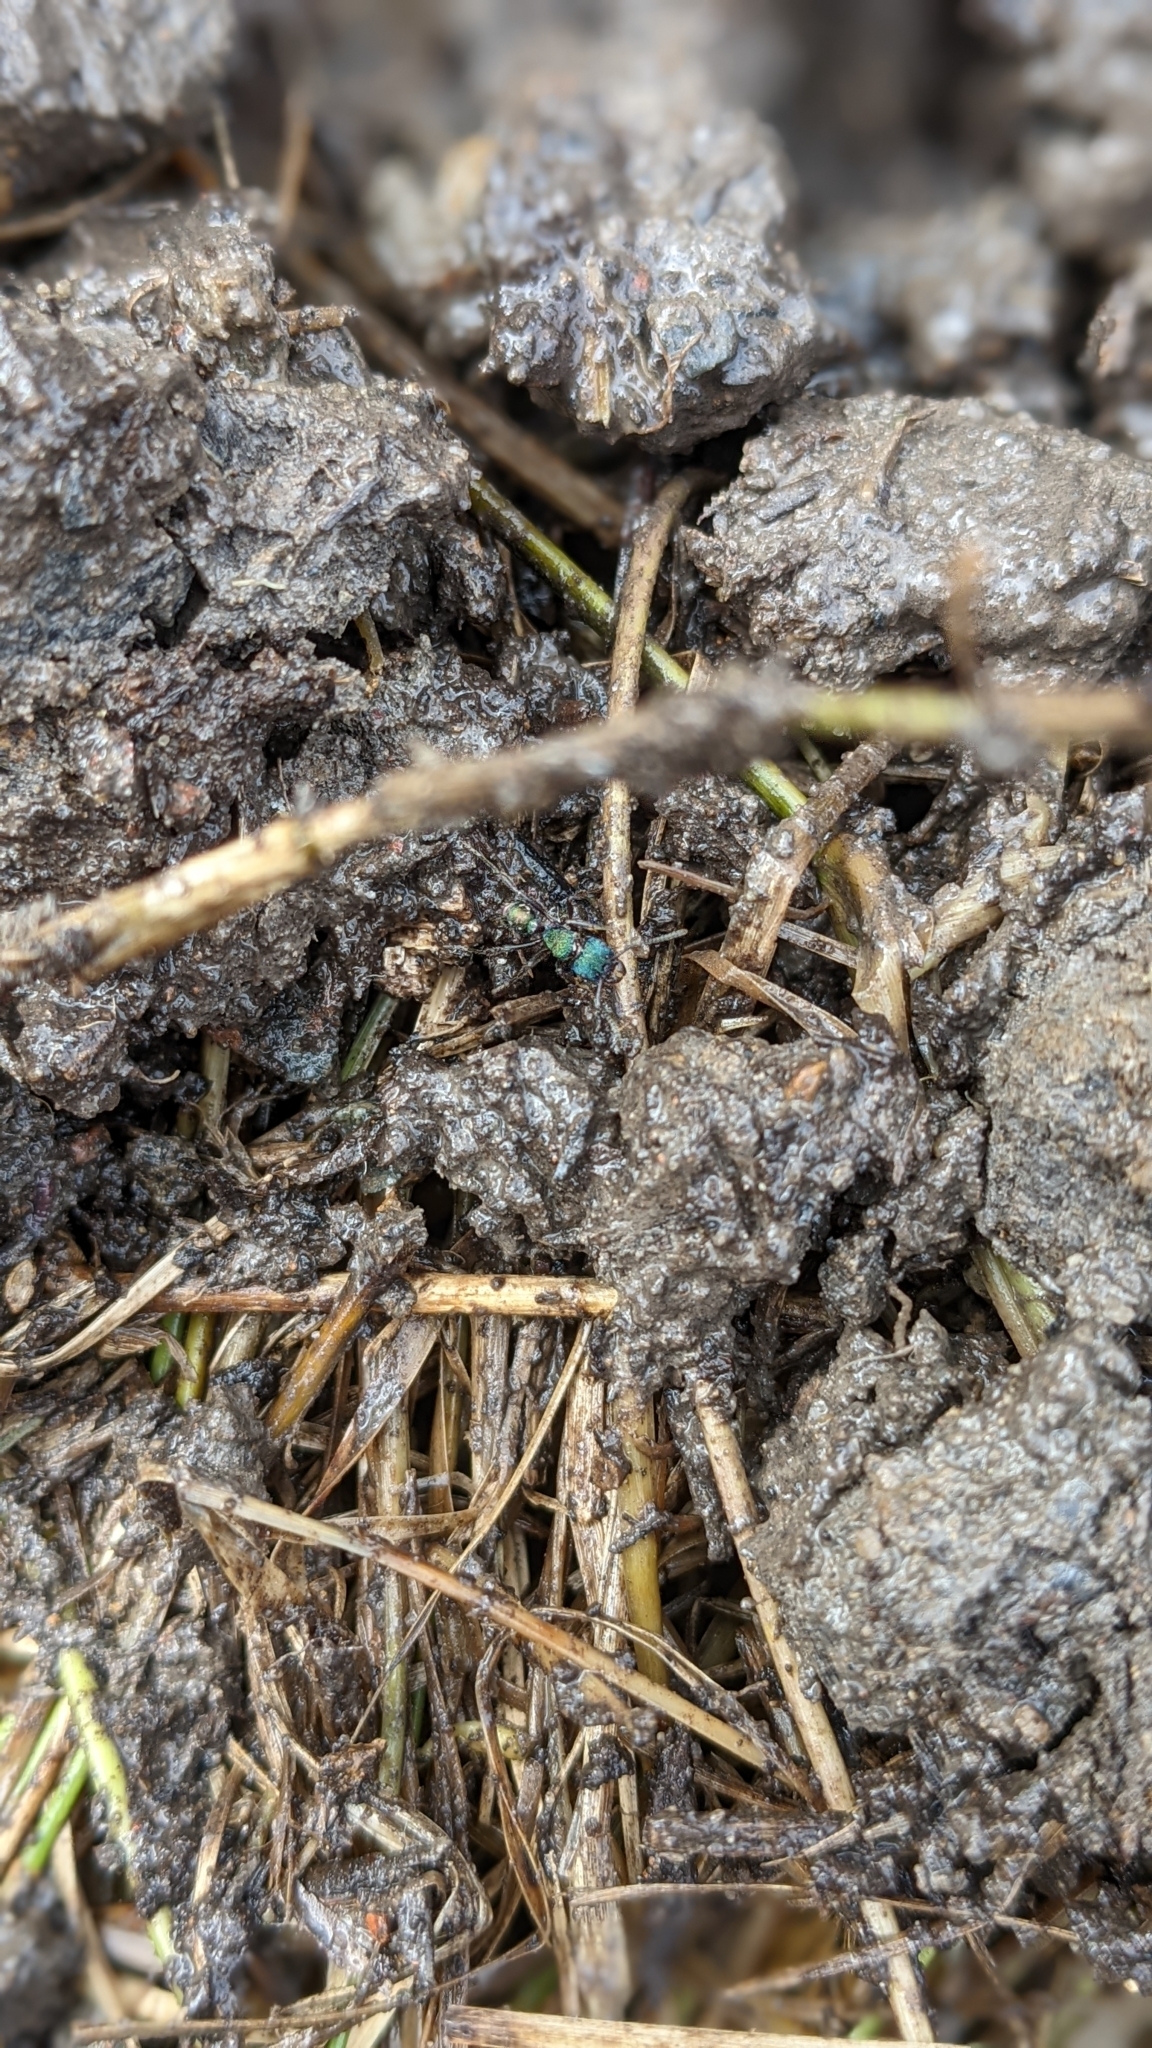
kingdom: Animalia
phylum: Arthropoda
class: Insecta
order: Hymenoptera
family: Formicidae
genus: Rhytidoponera
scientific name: Rhytidoponera metallica
